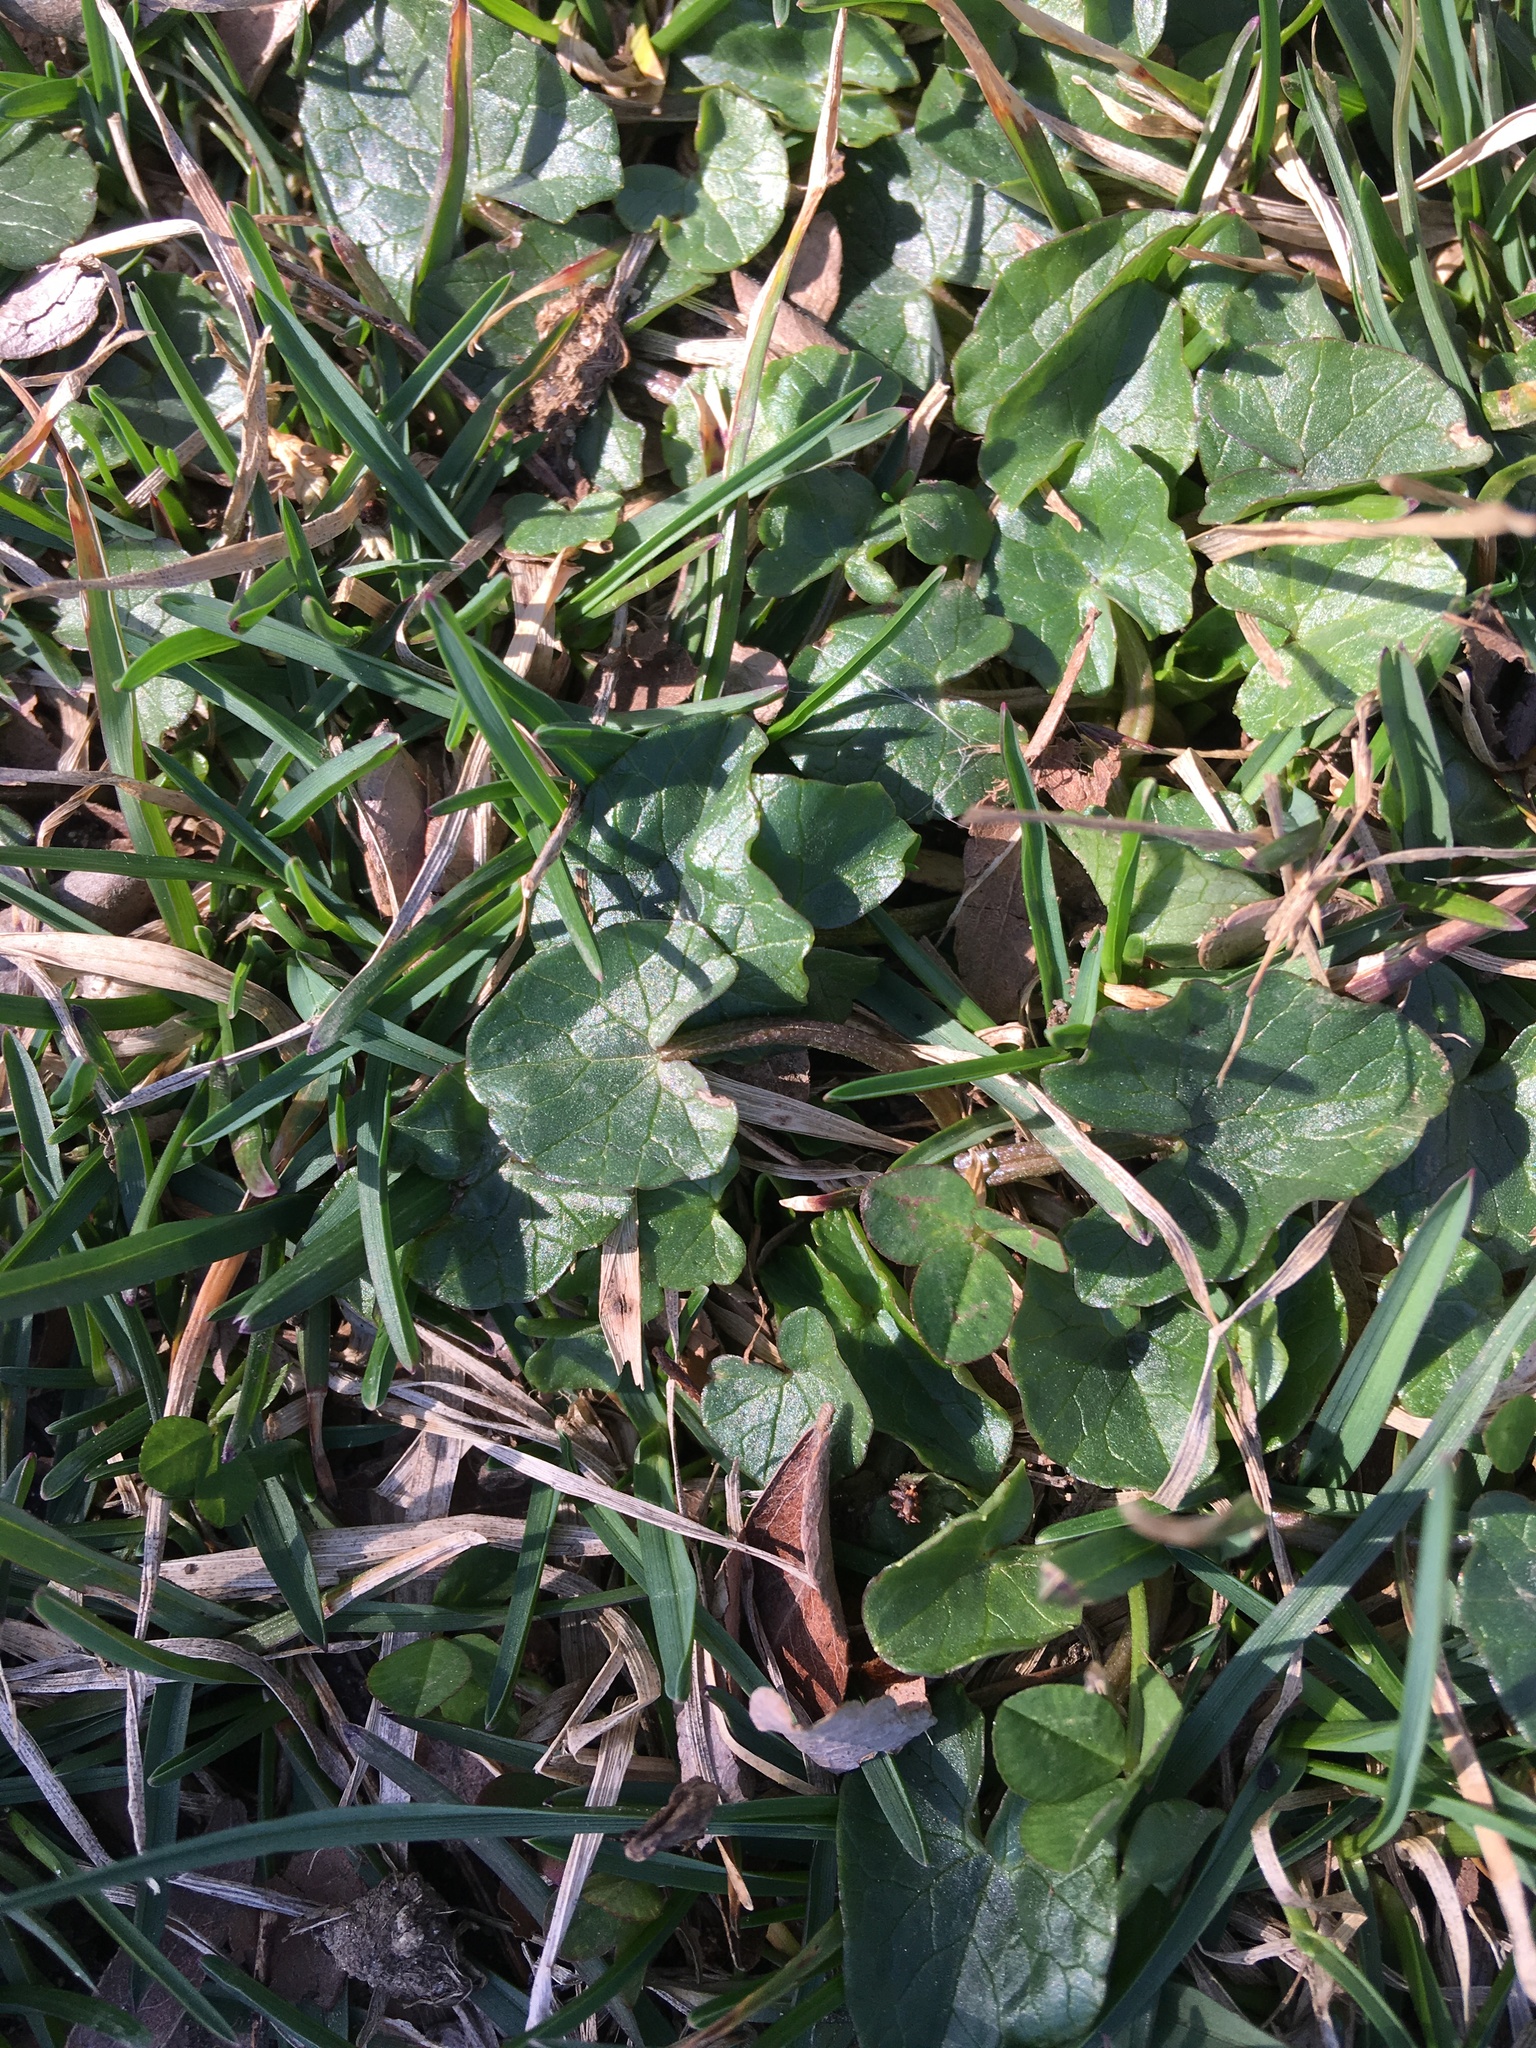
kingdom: Plantae
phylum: Tracheophyta
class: Magnoliopsida
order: Ranunculales
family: Ranunculaceae
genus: Ficaria
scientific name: Ficaria verna
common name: Lesser celandine
